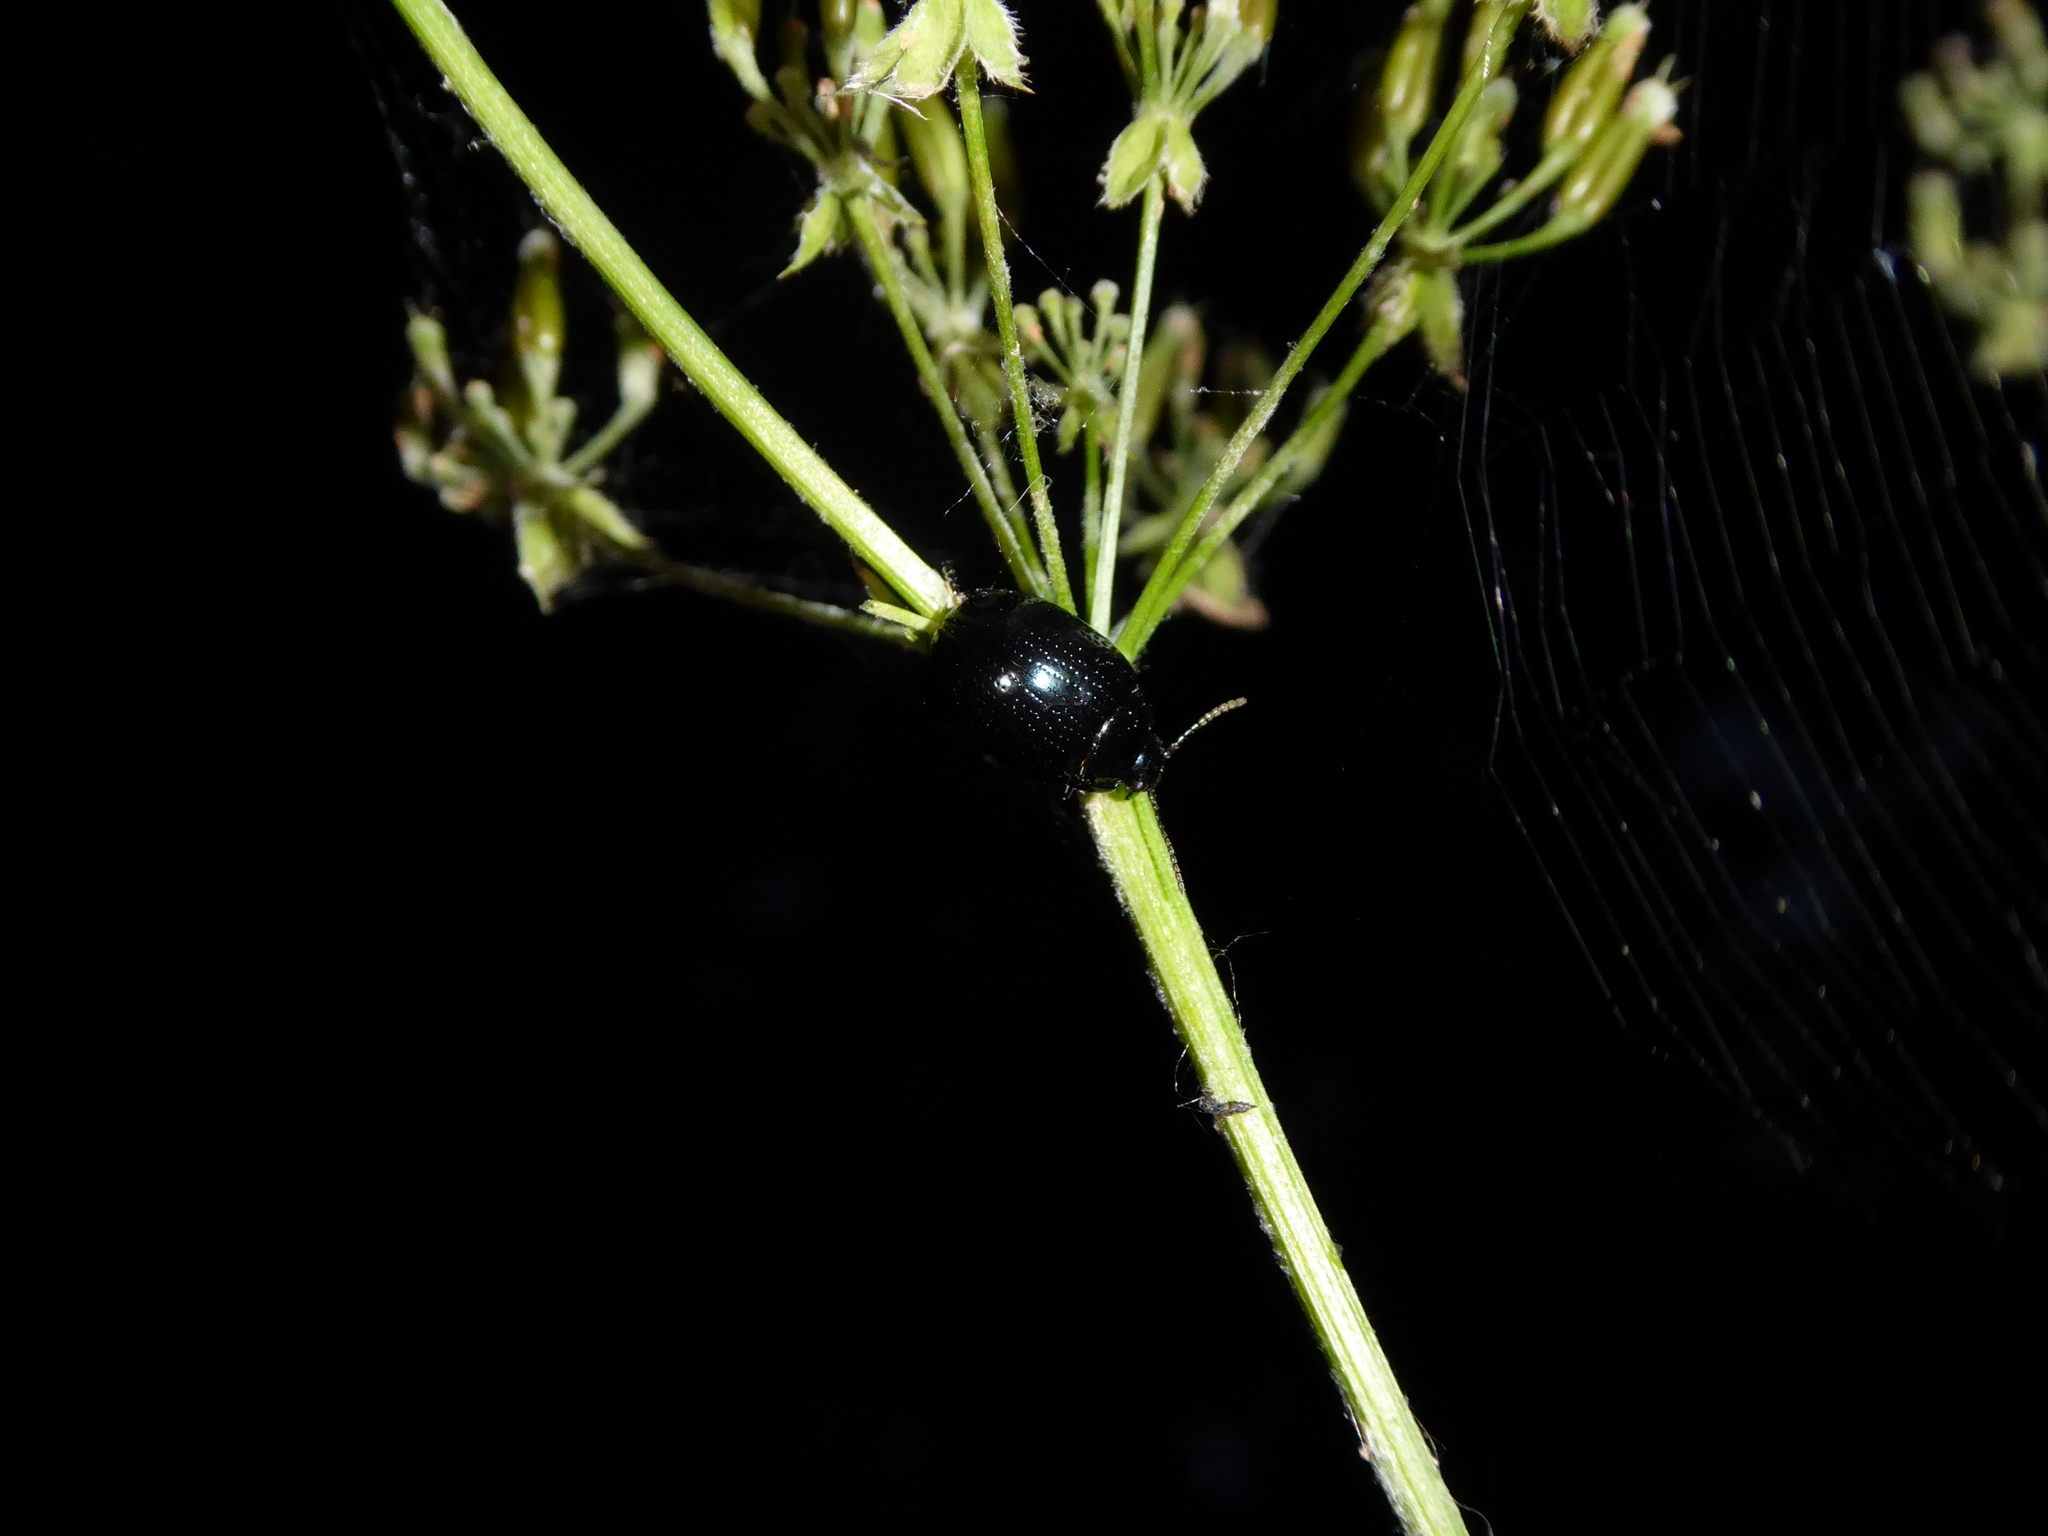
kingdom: Animalia
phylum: Arthropoda
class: Insecta
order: Coleoptera
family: Chrysomelidae
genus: Chrysolina
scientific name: Chrysolina oricalcia
